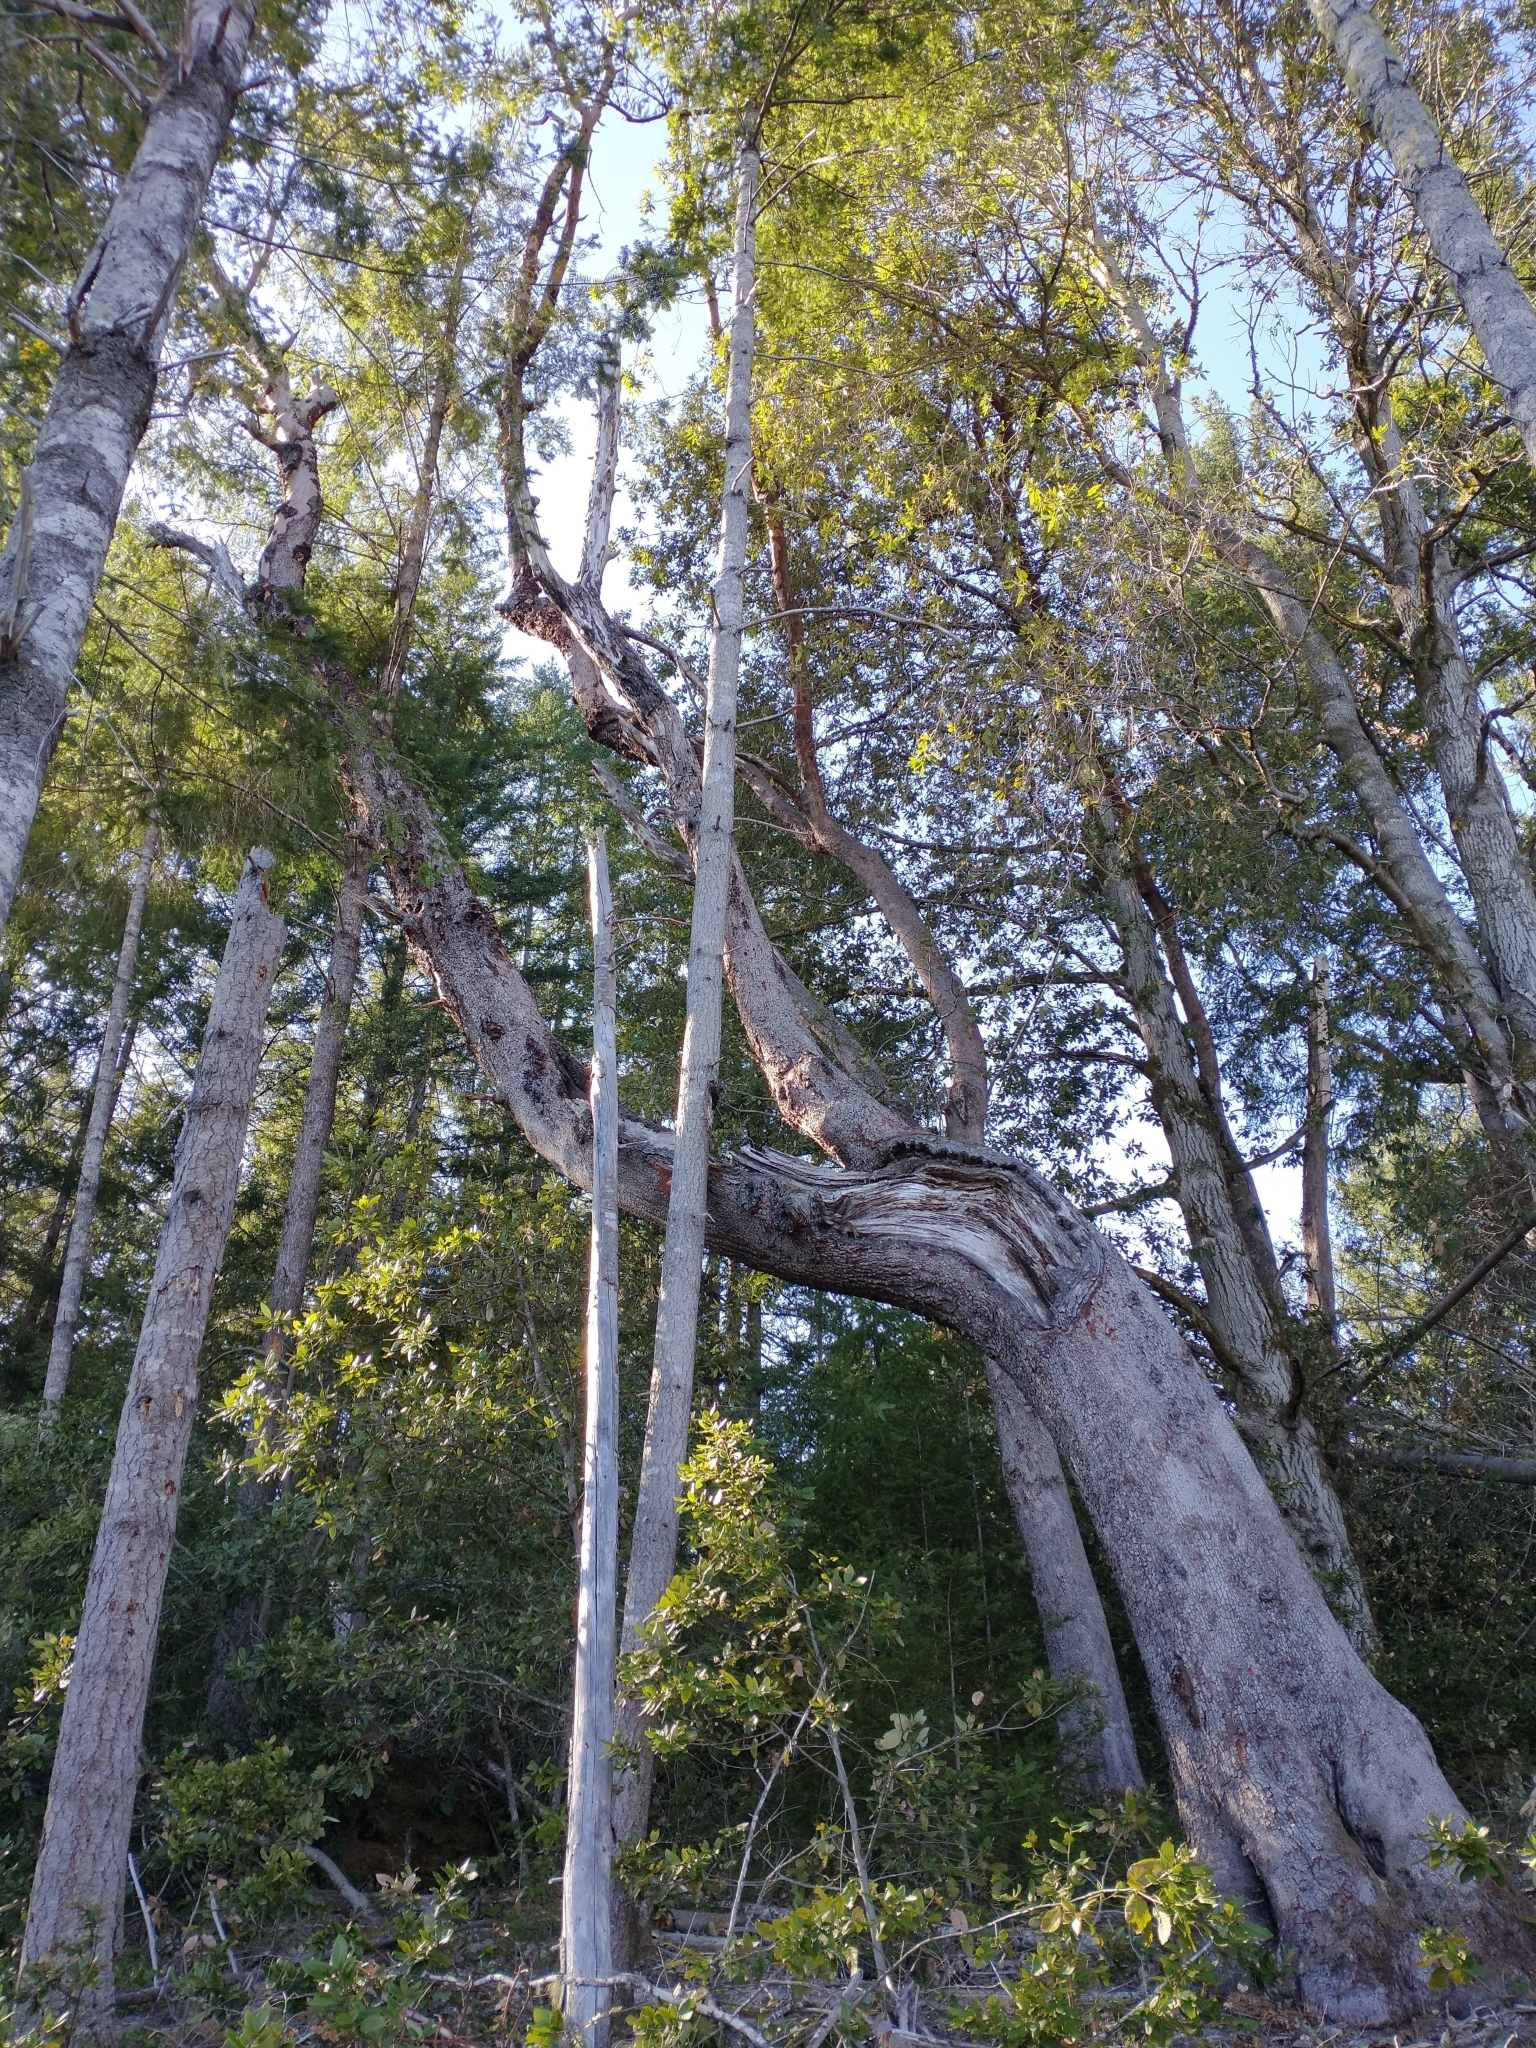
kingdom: Plantae
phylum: Tracheophyta
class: Magnoliopsida
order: Ericales
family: Ericaceae
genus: Arbutus
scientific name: Arbutus menziesii
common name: Pacific madrone
